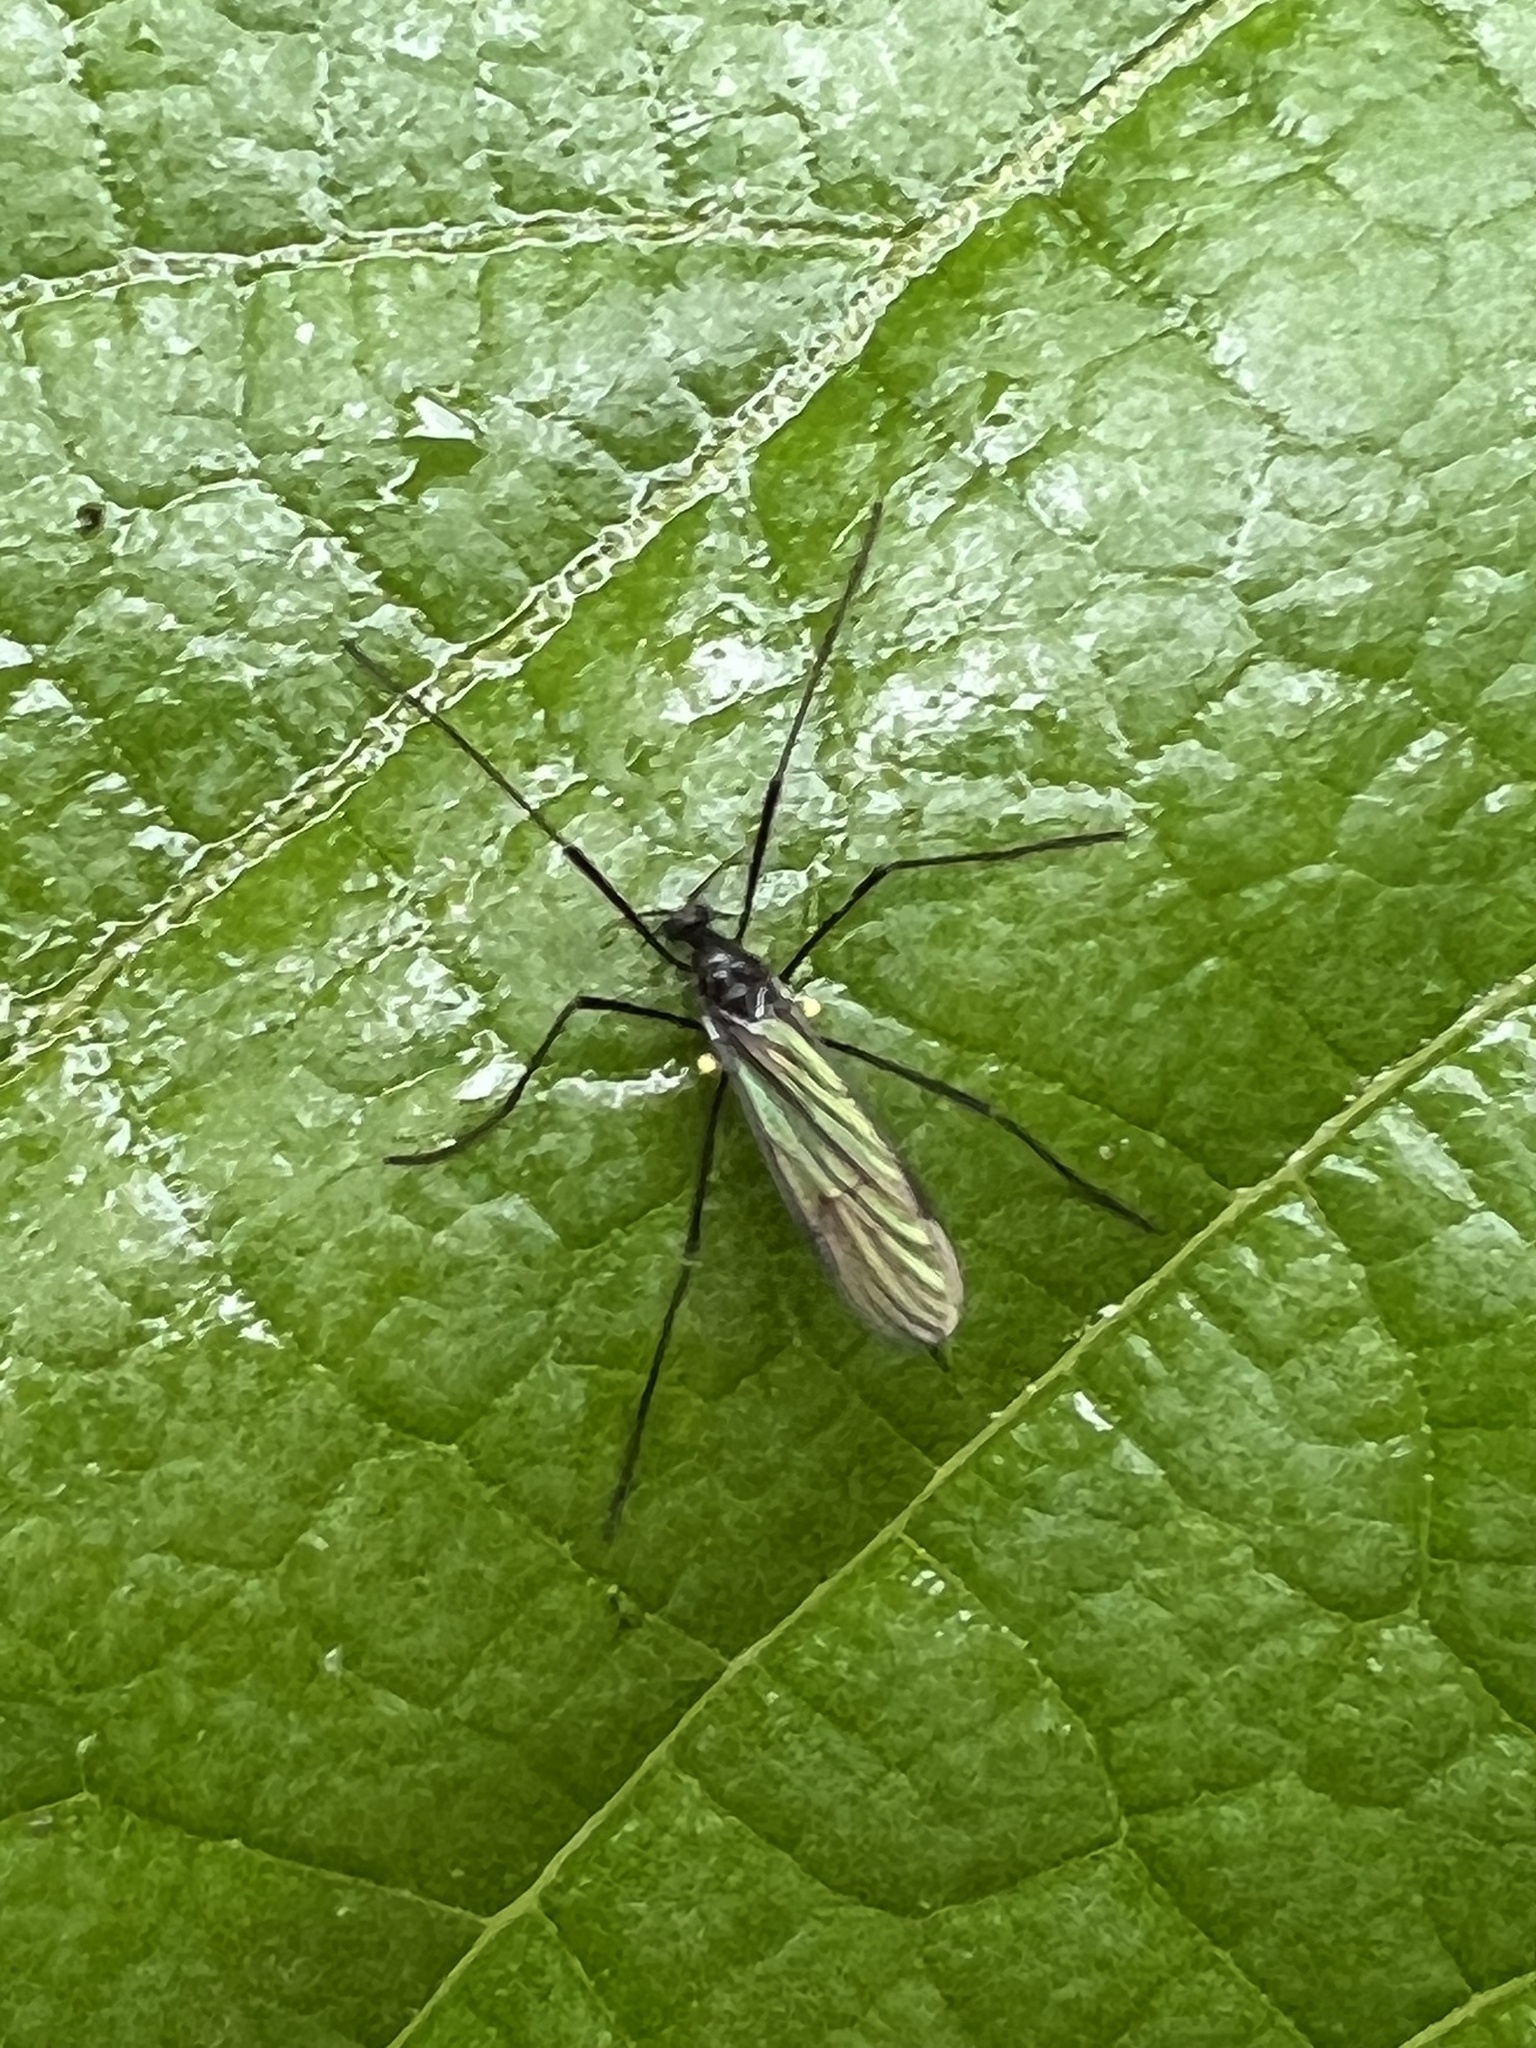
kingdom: Animalia
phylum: Arthropoda
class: Insecta
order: Diptera
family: Limoniidae
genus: Gnophomyia
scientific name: Gnophomyia tristissima
